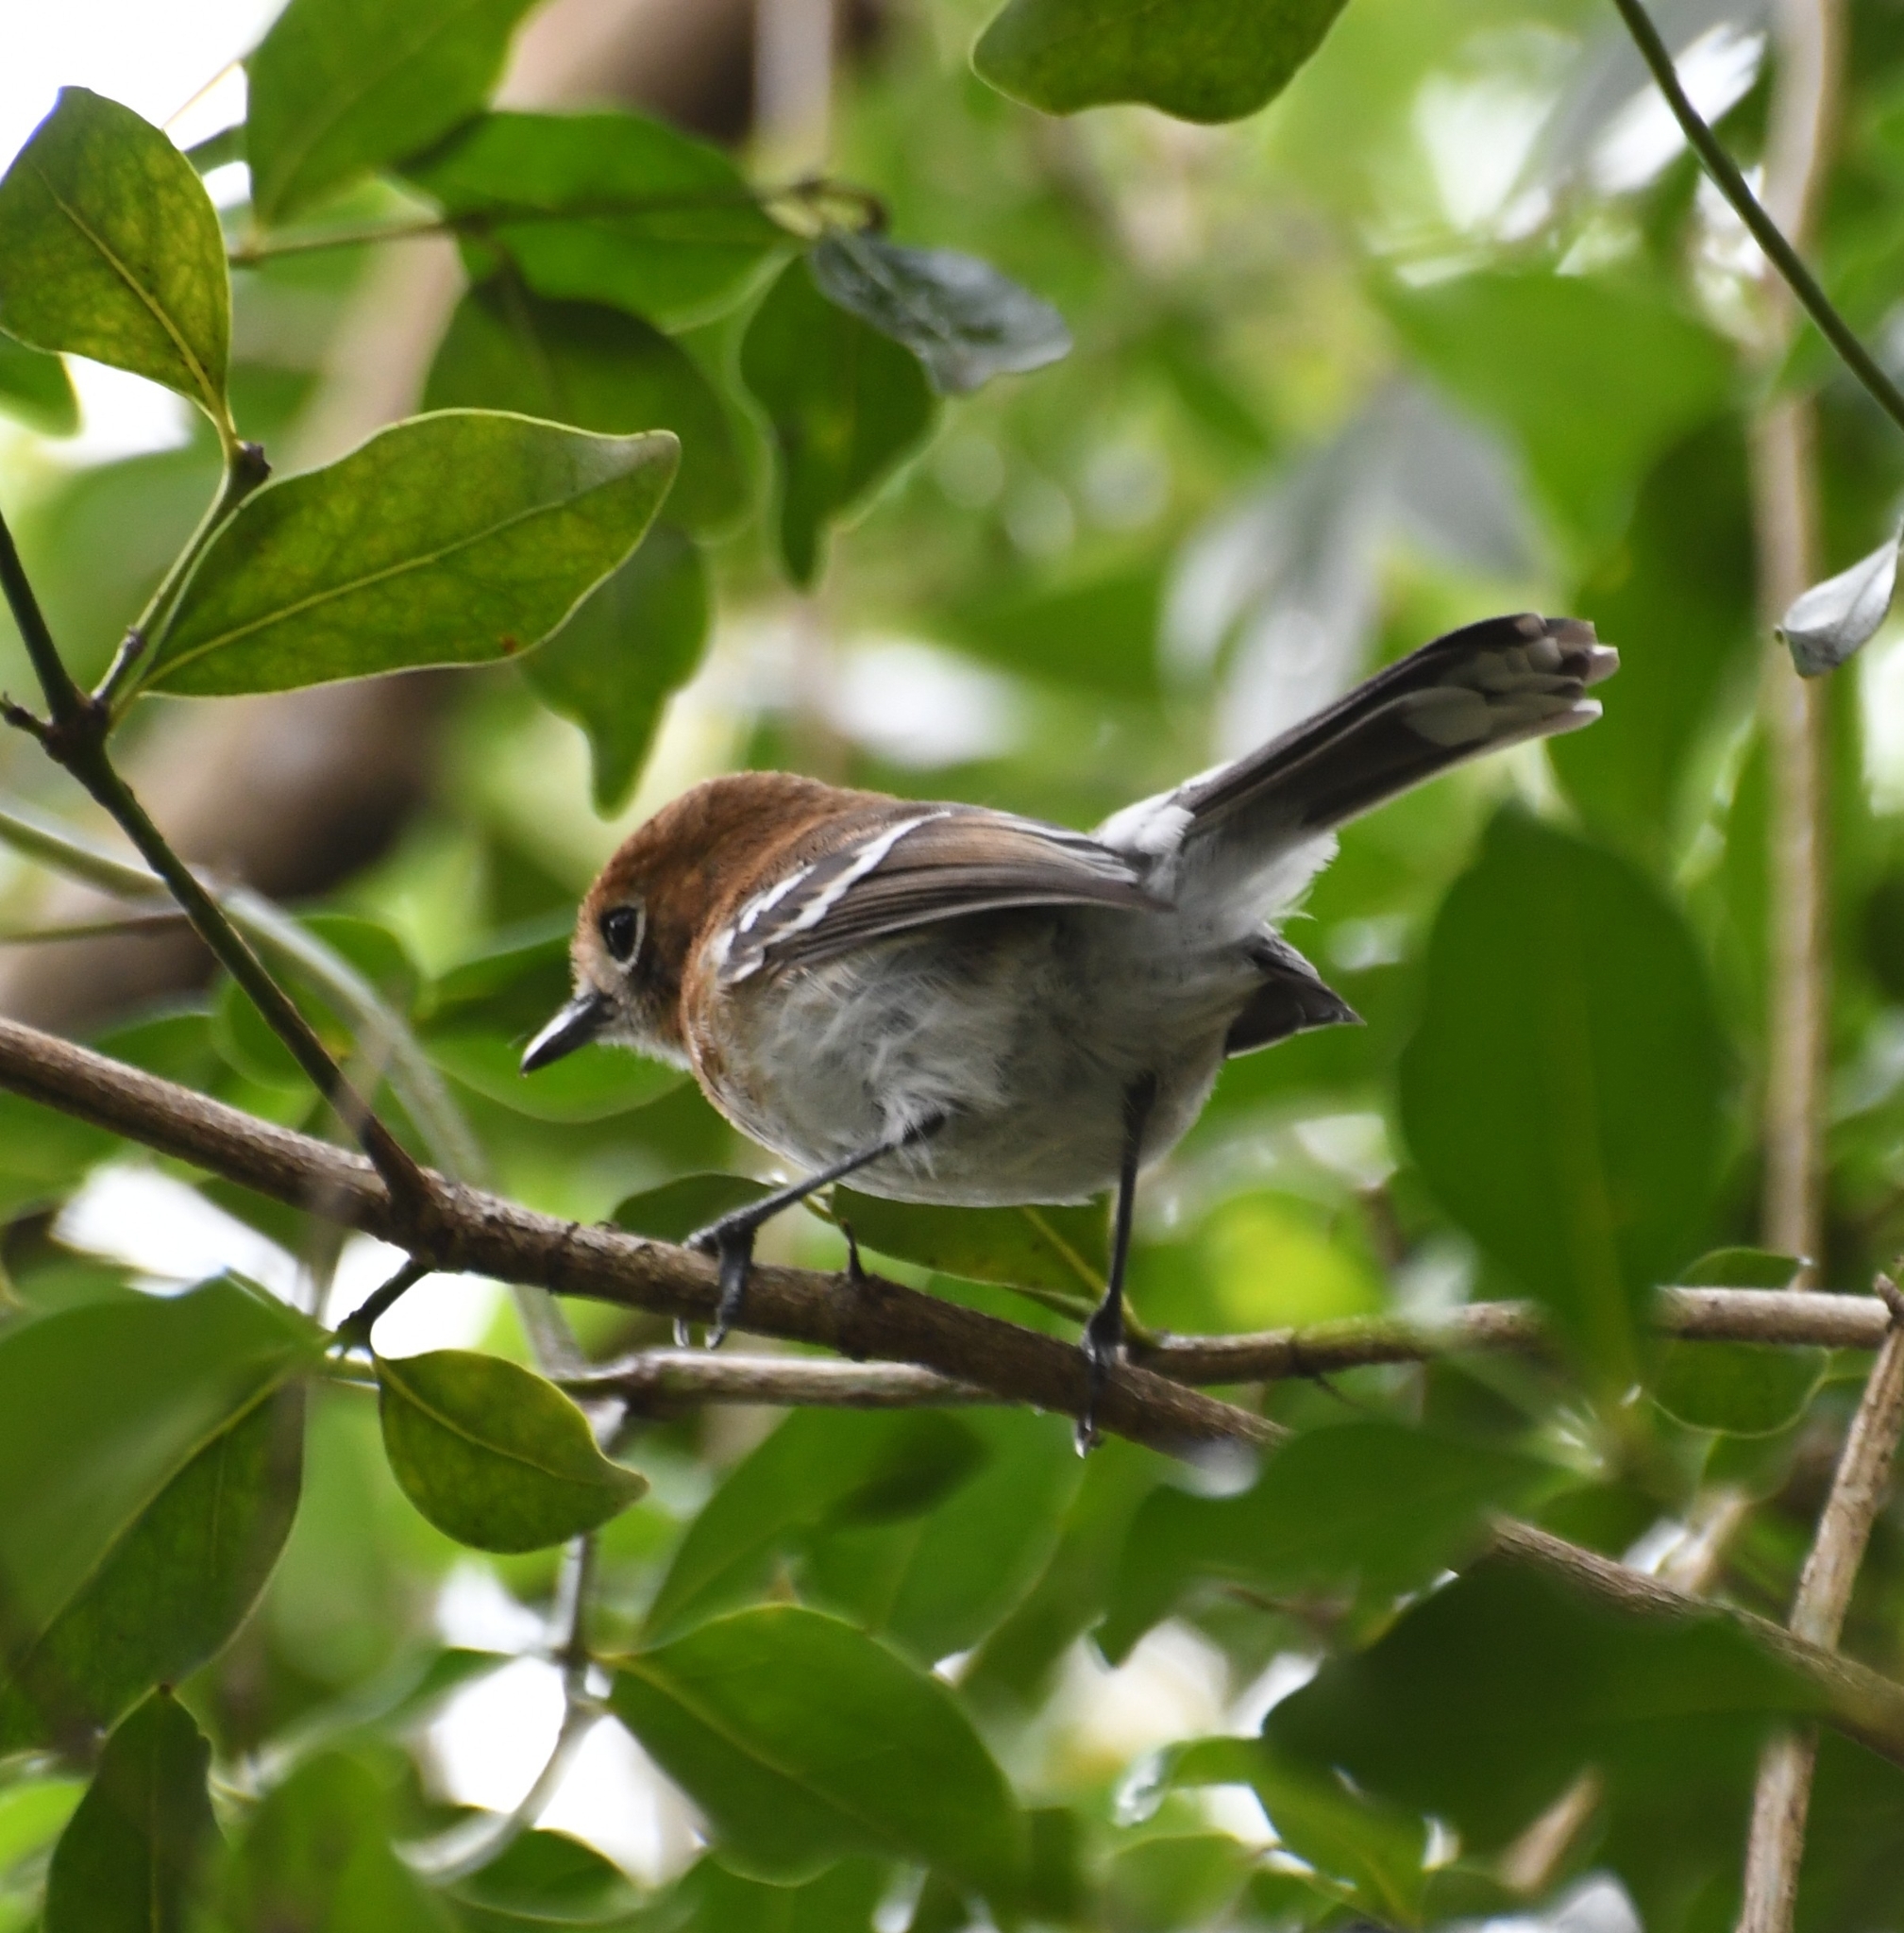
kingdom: Animalia
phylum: Chordata
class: Aves
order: Passeriformes
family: Monarchidae
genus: Chasiempis
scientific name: Chasiempis ibidis
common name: Oahu elepaio
